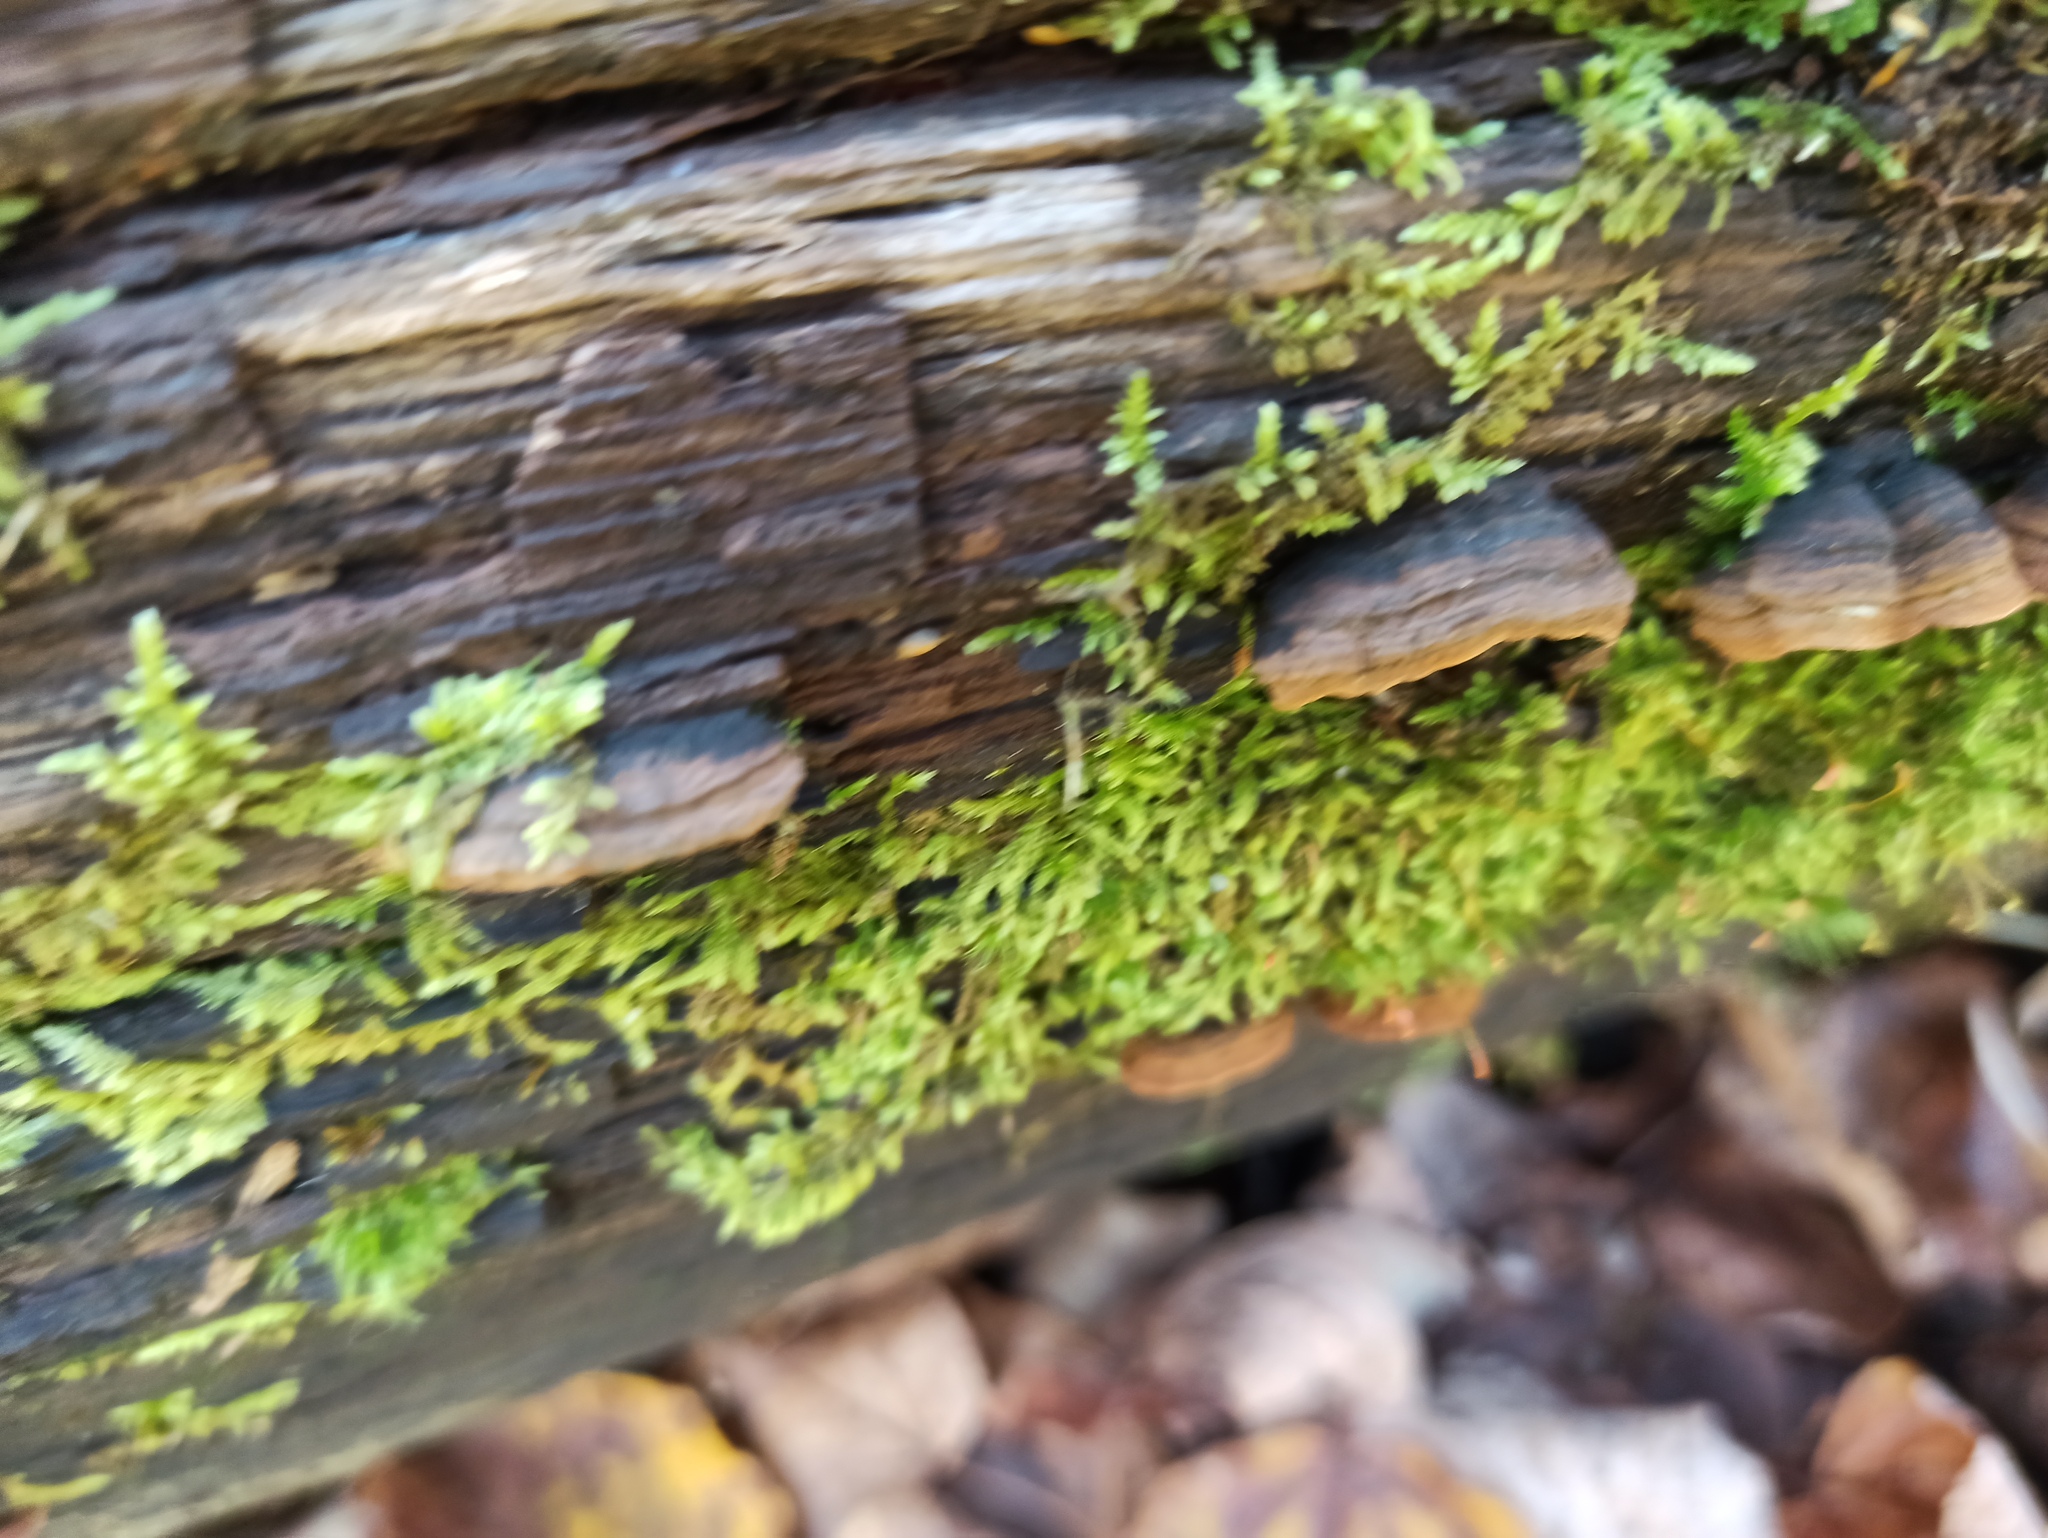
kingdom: Fungi
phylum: Basidiomycota
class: Agaricomycetes
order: Hymenochaetales
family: Hymenochaetaceae
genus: Hymenochaete
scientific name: Hymenochaete rubiginosa
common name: Oak curtain crust
